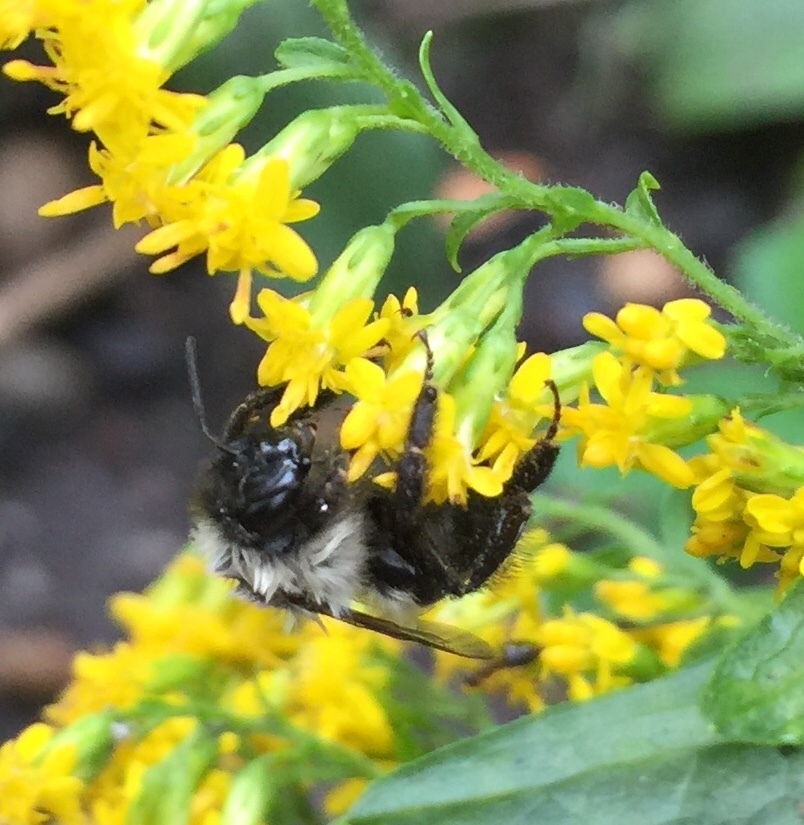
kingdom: Animalia
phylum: Arthropoda
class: Insecta
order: Hymenoptera
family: Apidae
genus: Bombus
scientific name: Bombus impatiens
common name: Common eastern bumble bee
